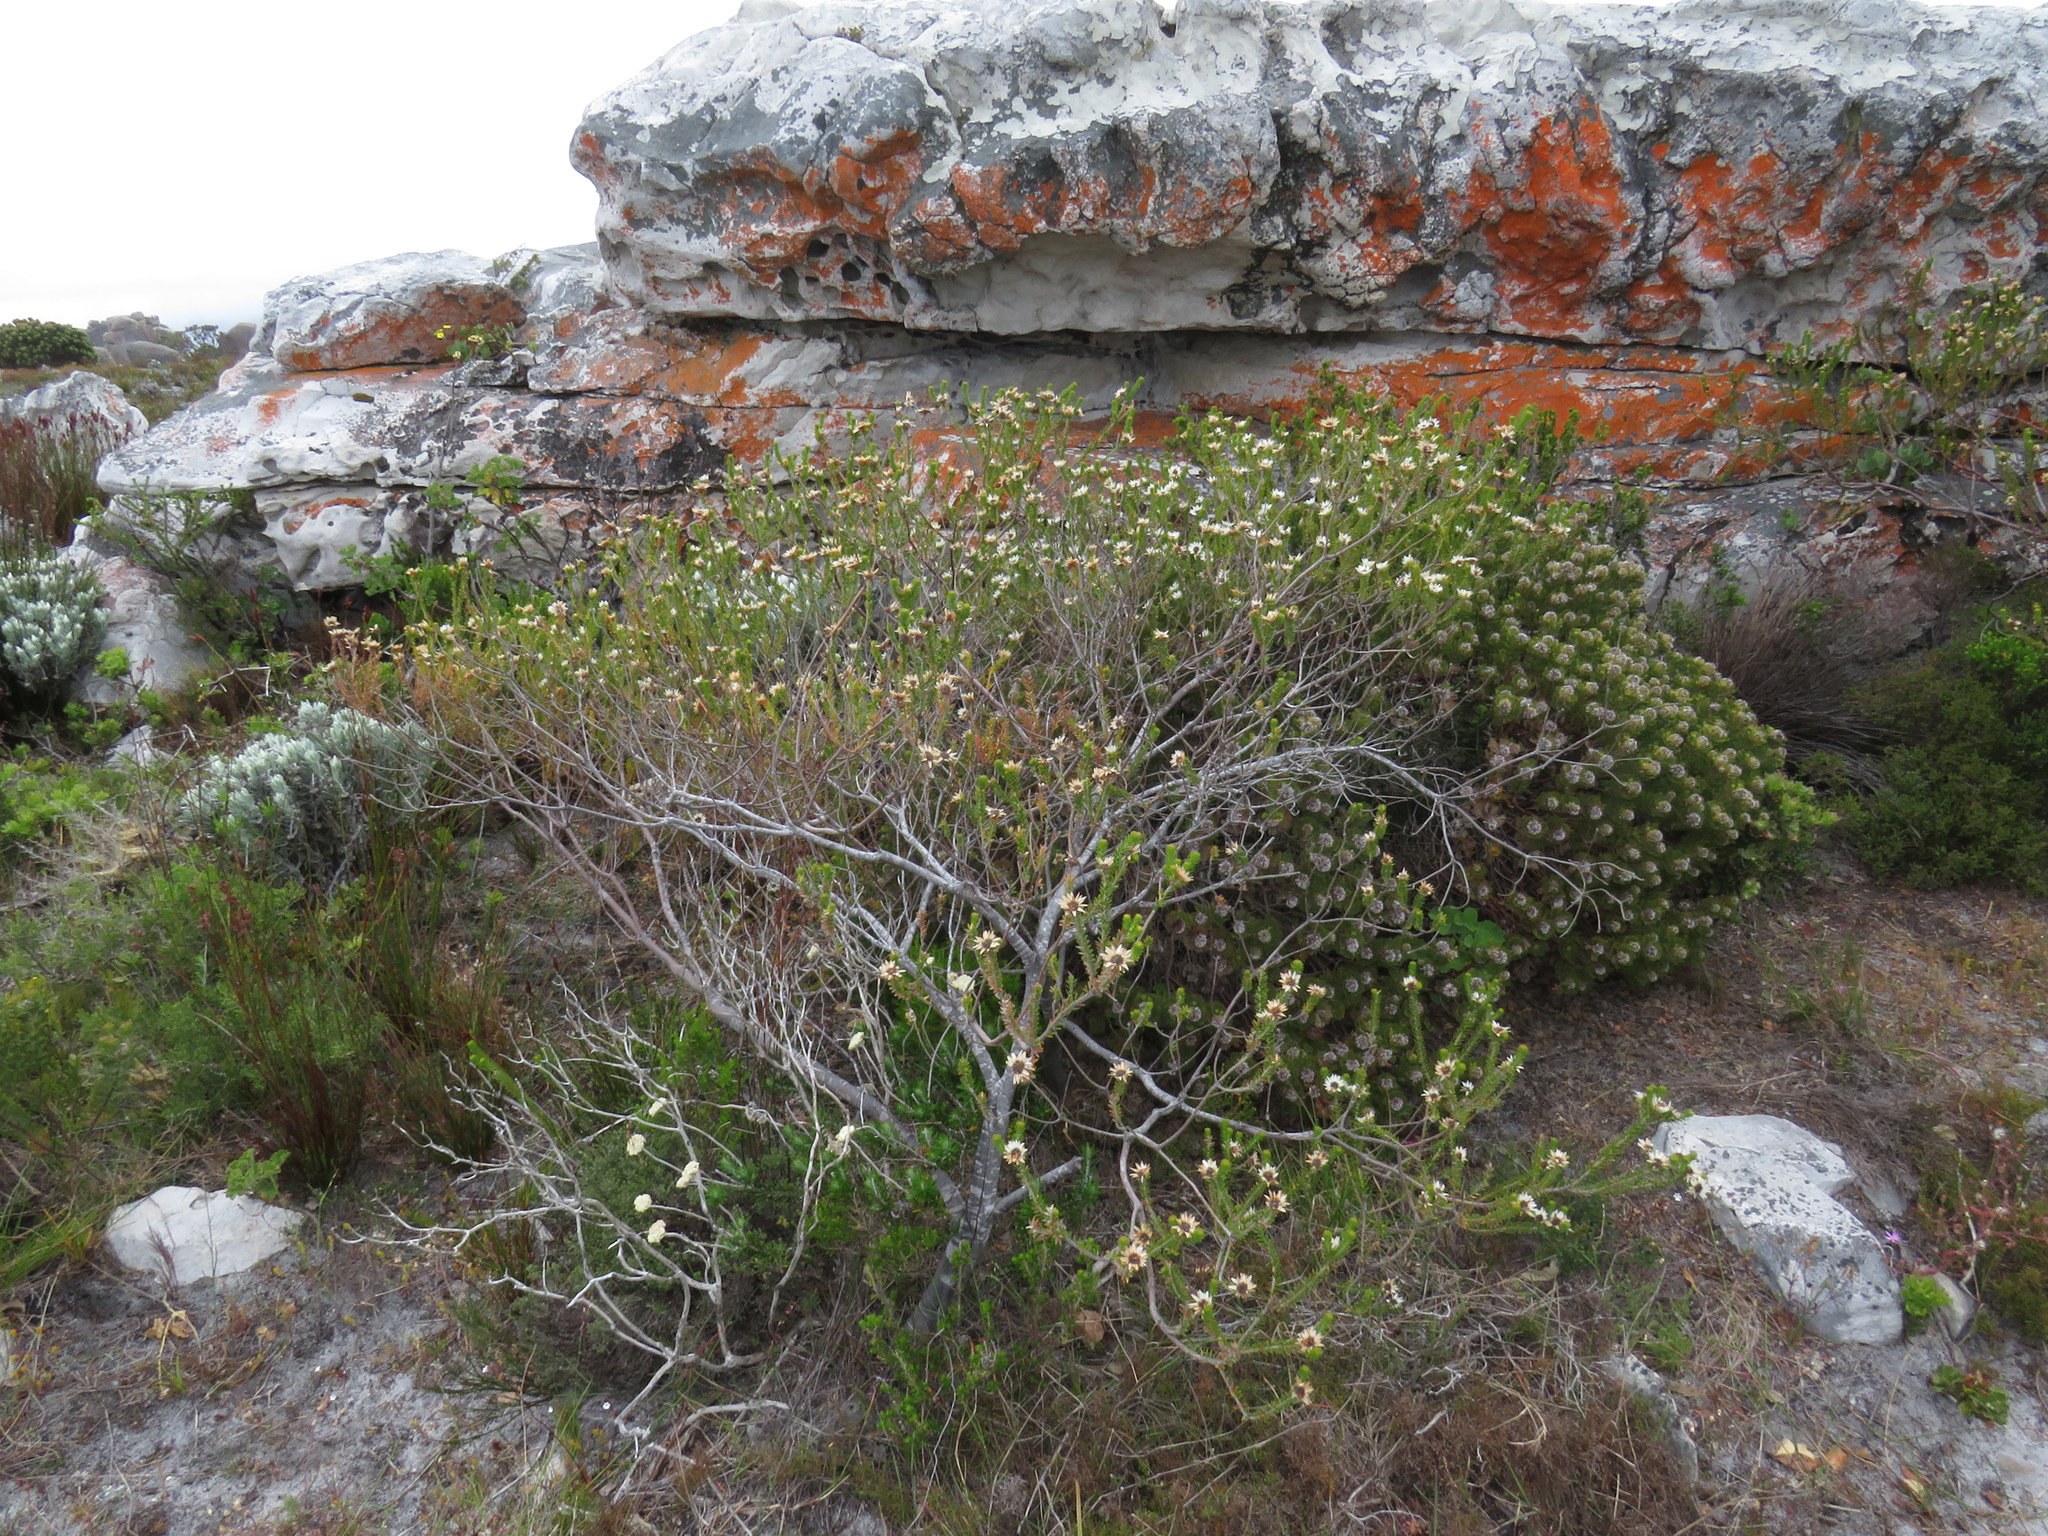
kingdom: Plantae
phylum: Tracheophyta
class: Magnoliopsida
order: Bruniales
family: Bruniaceae
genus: Staavia
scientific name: Staavia dodii
